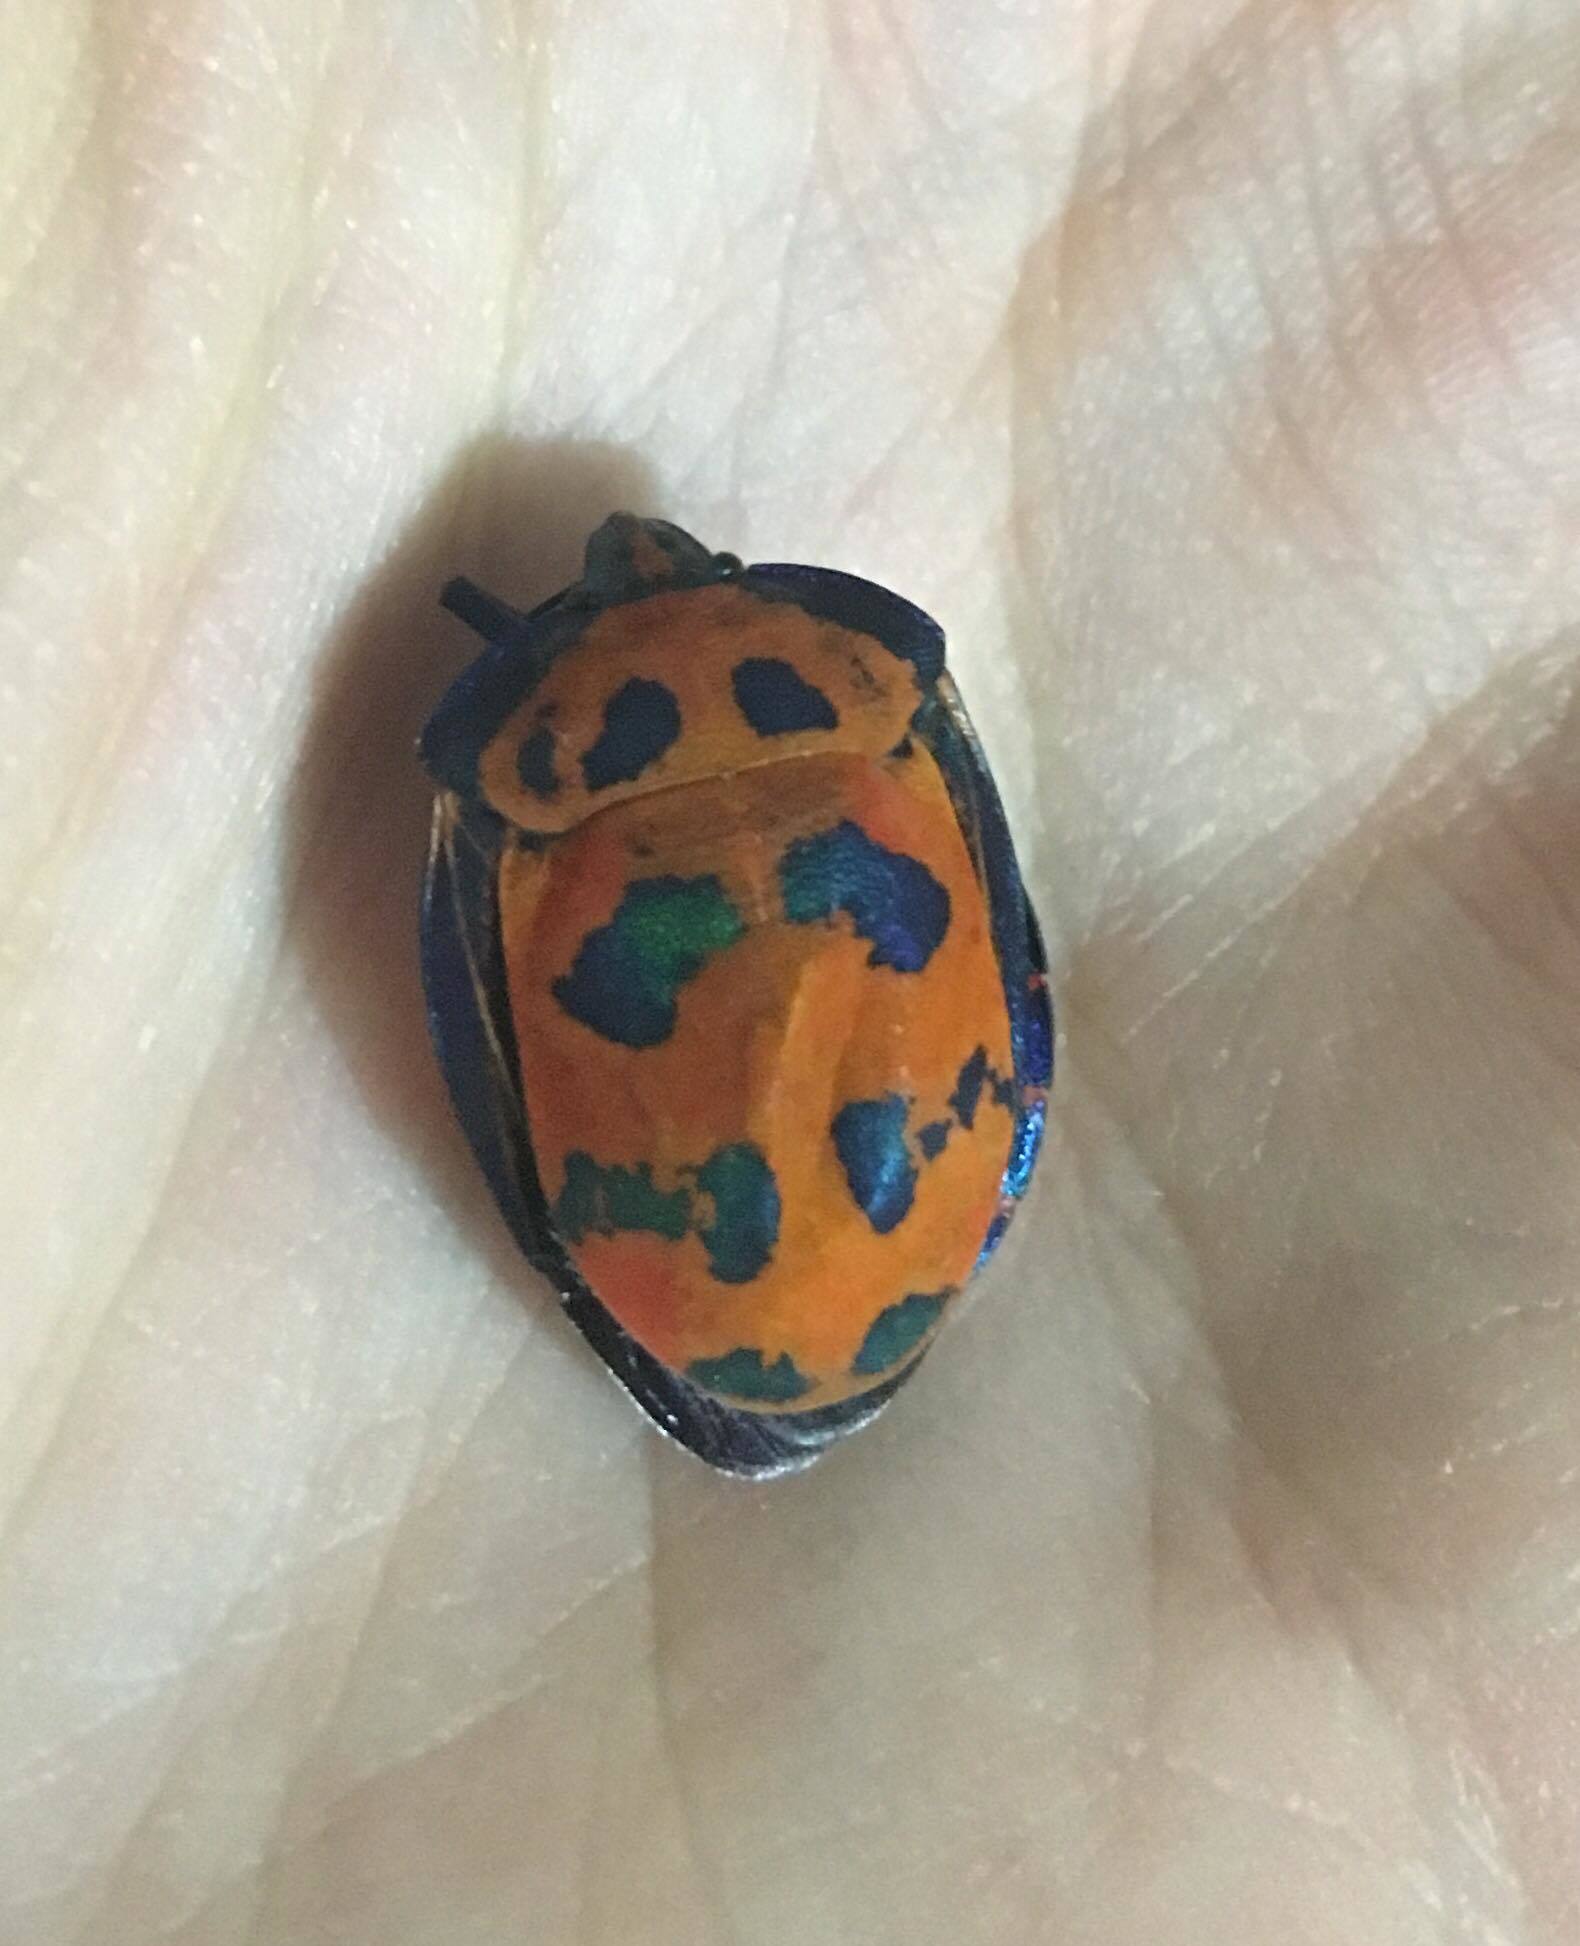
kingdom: Animalia
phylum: Arthropoda
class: Insecta
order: Hemiptera
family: Scutelleridae
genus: Tectocoris
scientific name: Tectocoris diophthalmus
